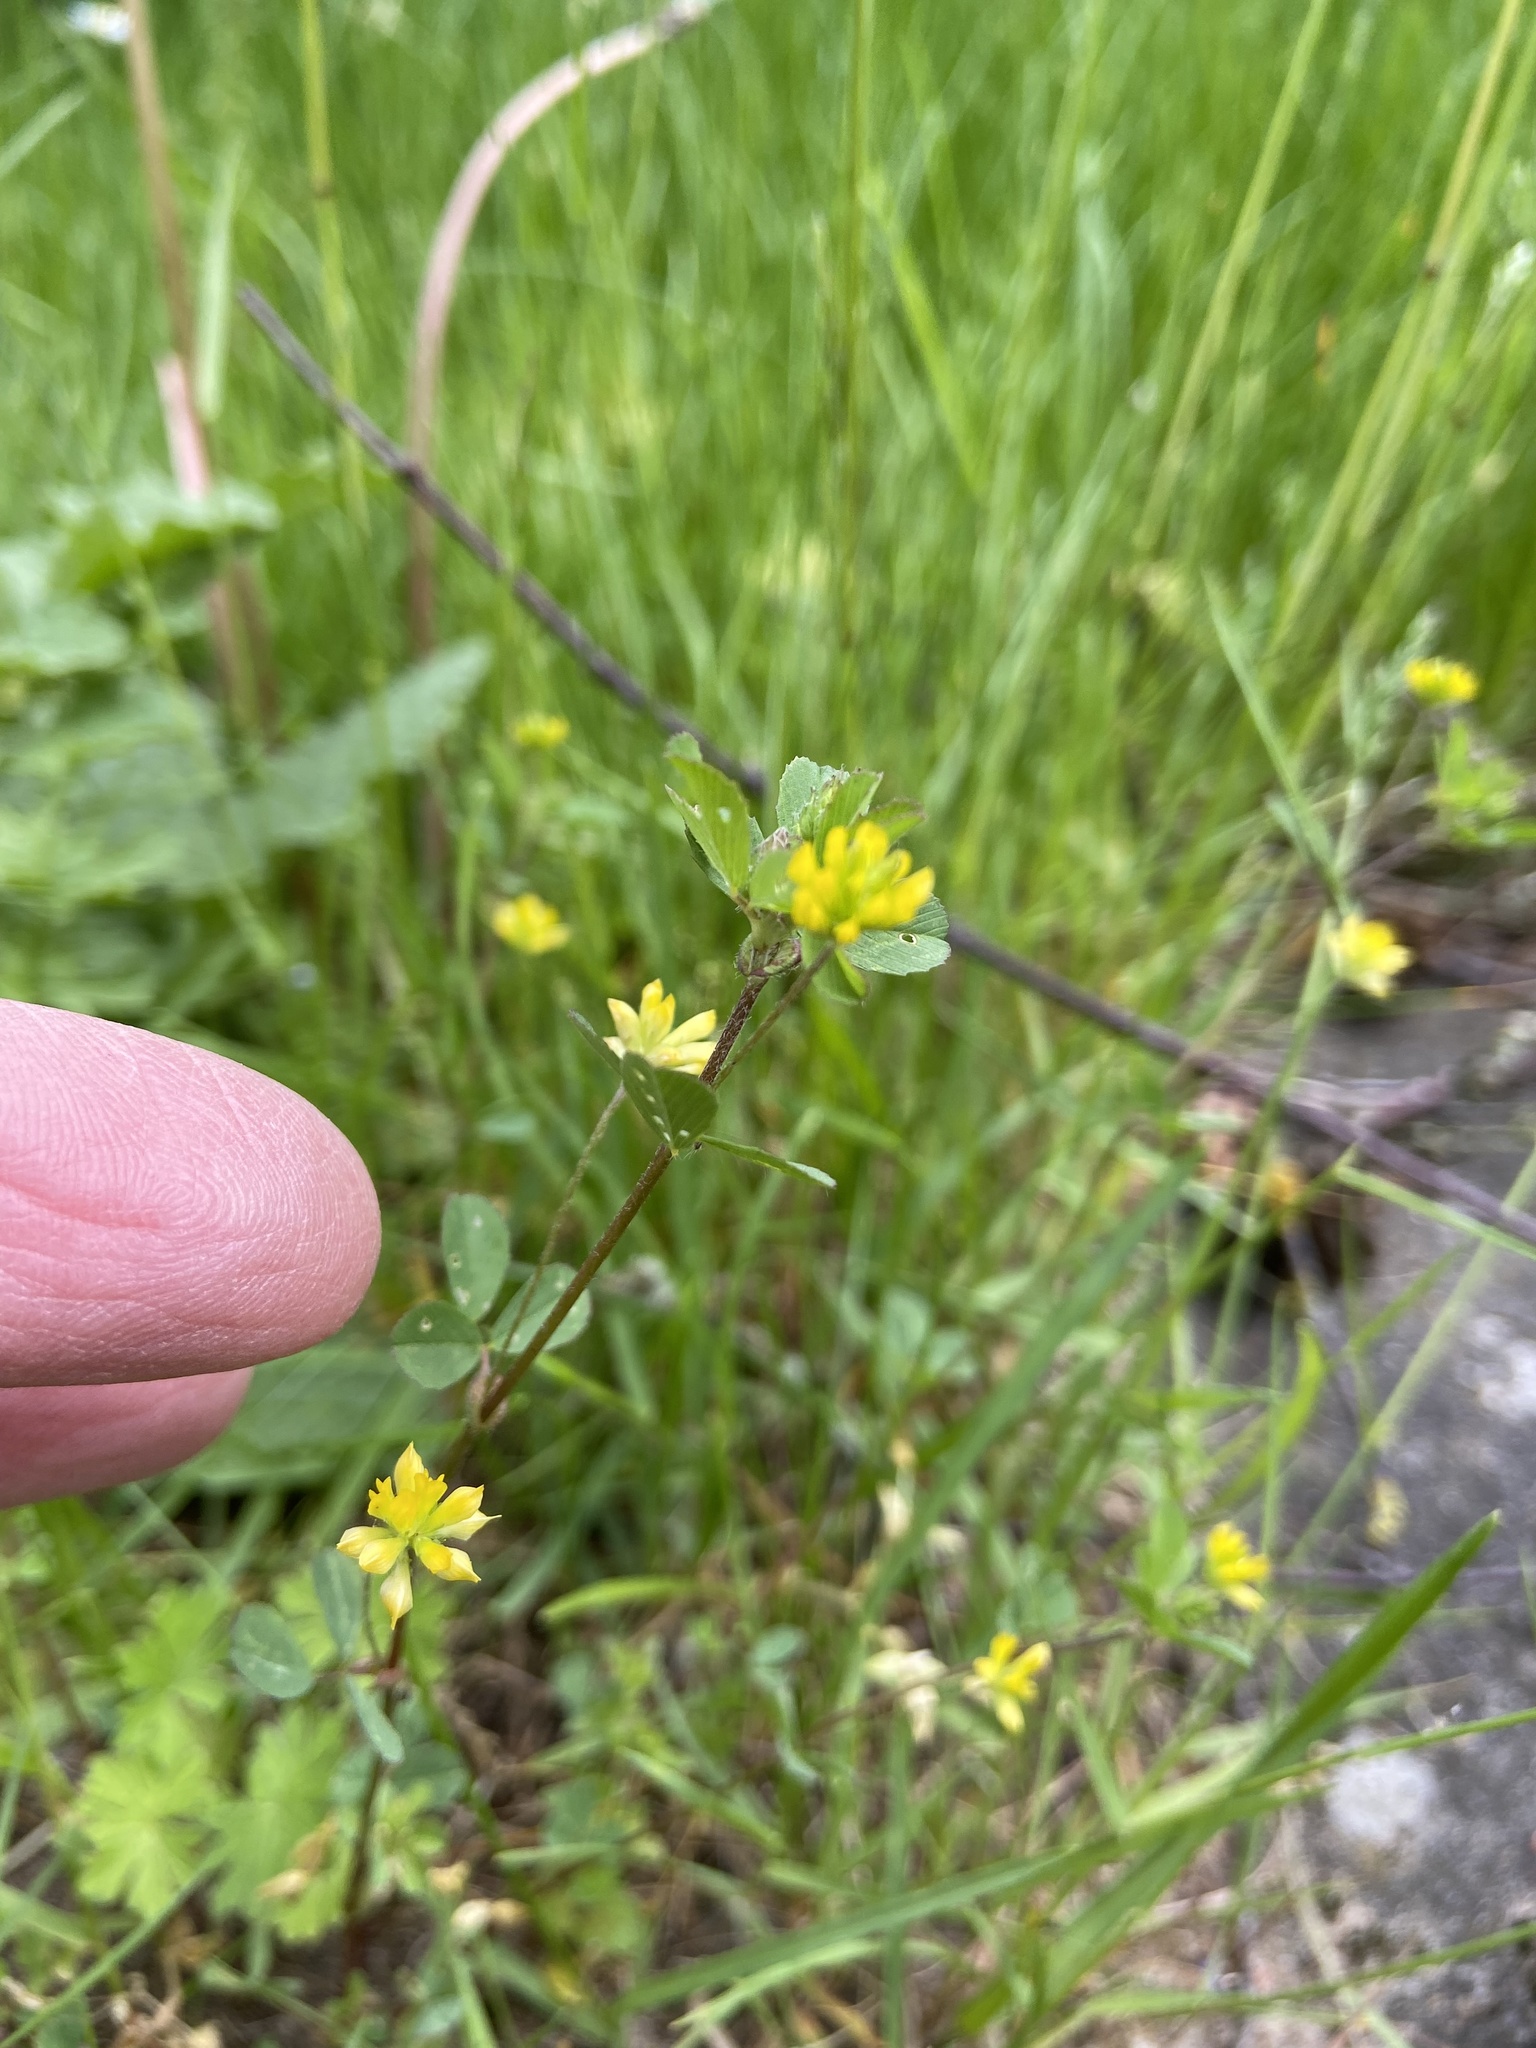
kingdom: Plantae
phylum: Tracheophyta
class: Magnoliopsida
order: Fabales
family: Fabaceae
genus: Trifolium
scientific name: Trifolium dubium
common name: Suckling clover
